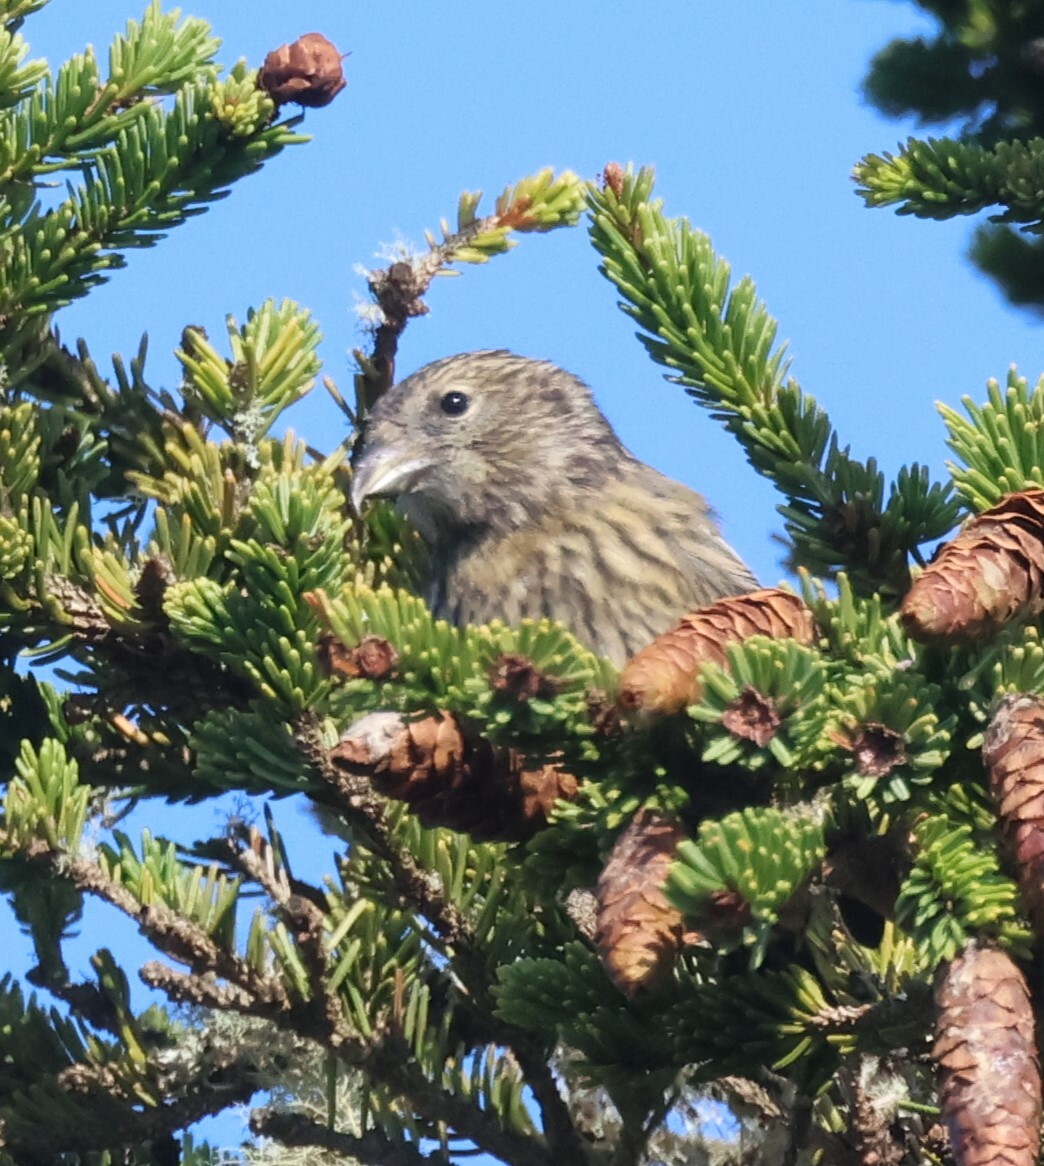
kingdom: Animalia
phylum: Chordata
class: Aves
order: Passeriformes
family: Fringillidae
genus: Loxia
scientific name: Loxia leucoptera
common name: Two-barred crossbill
